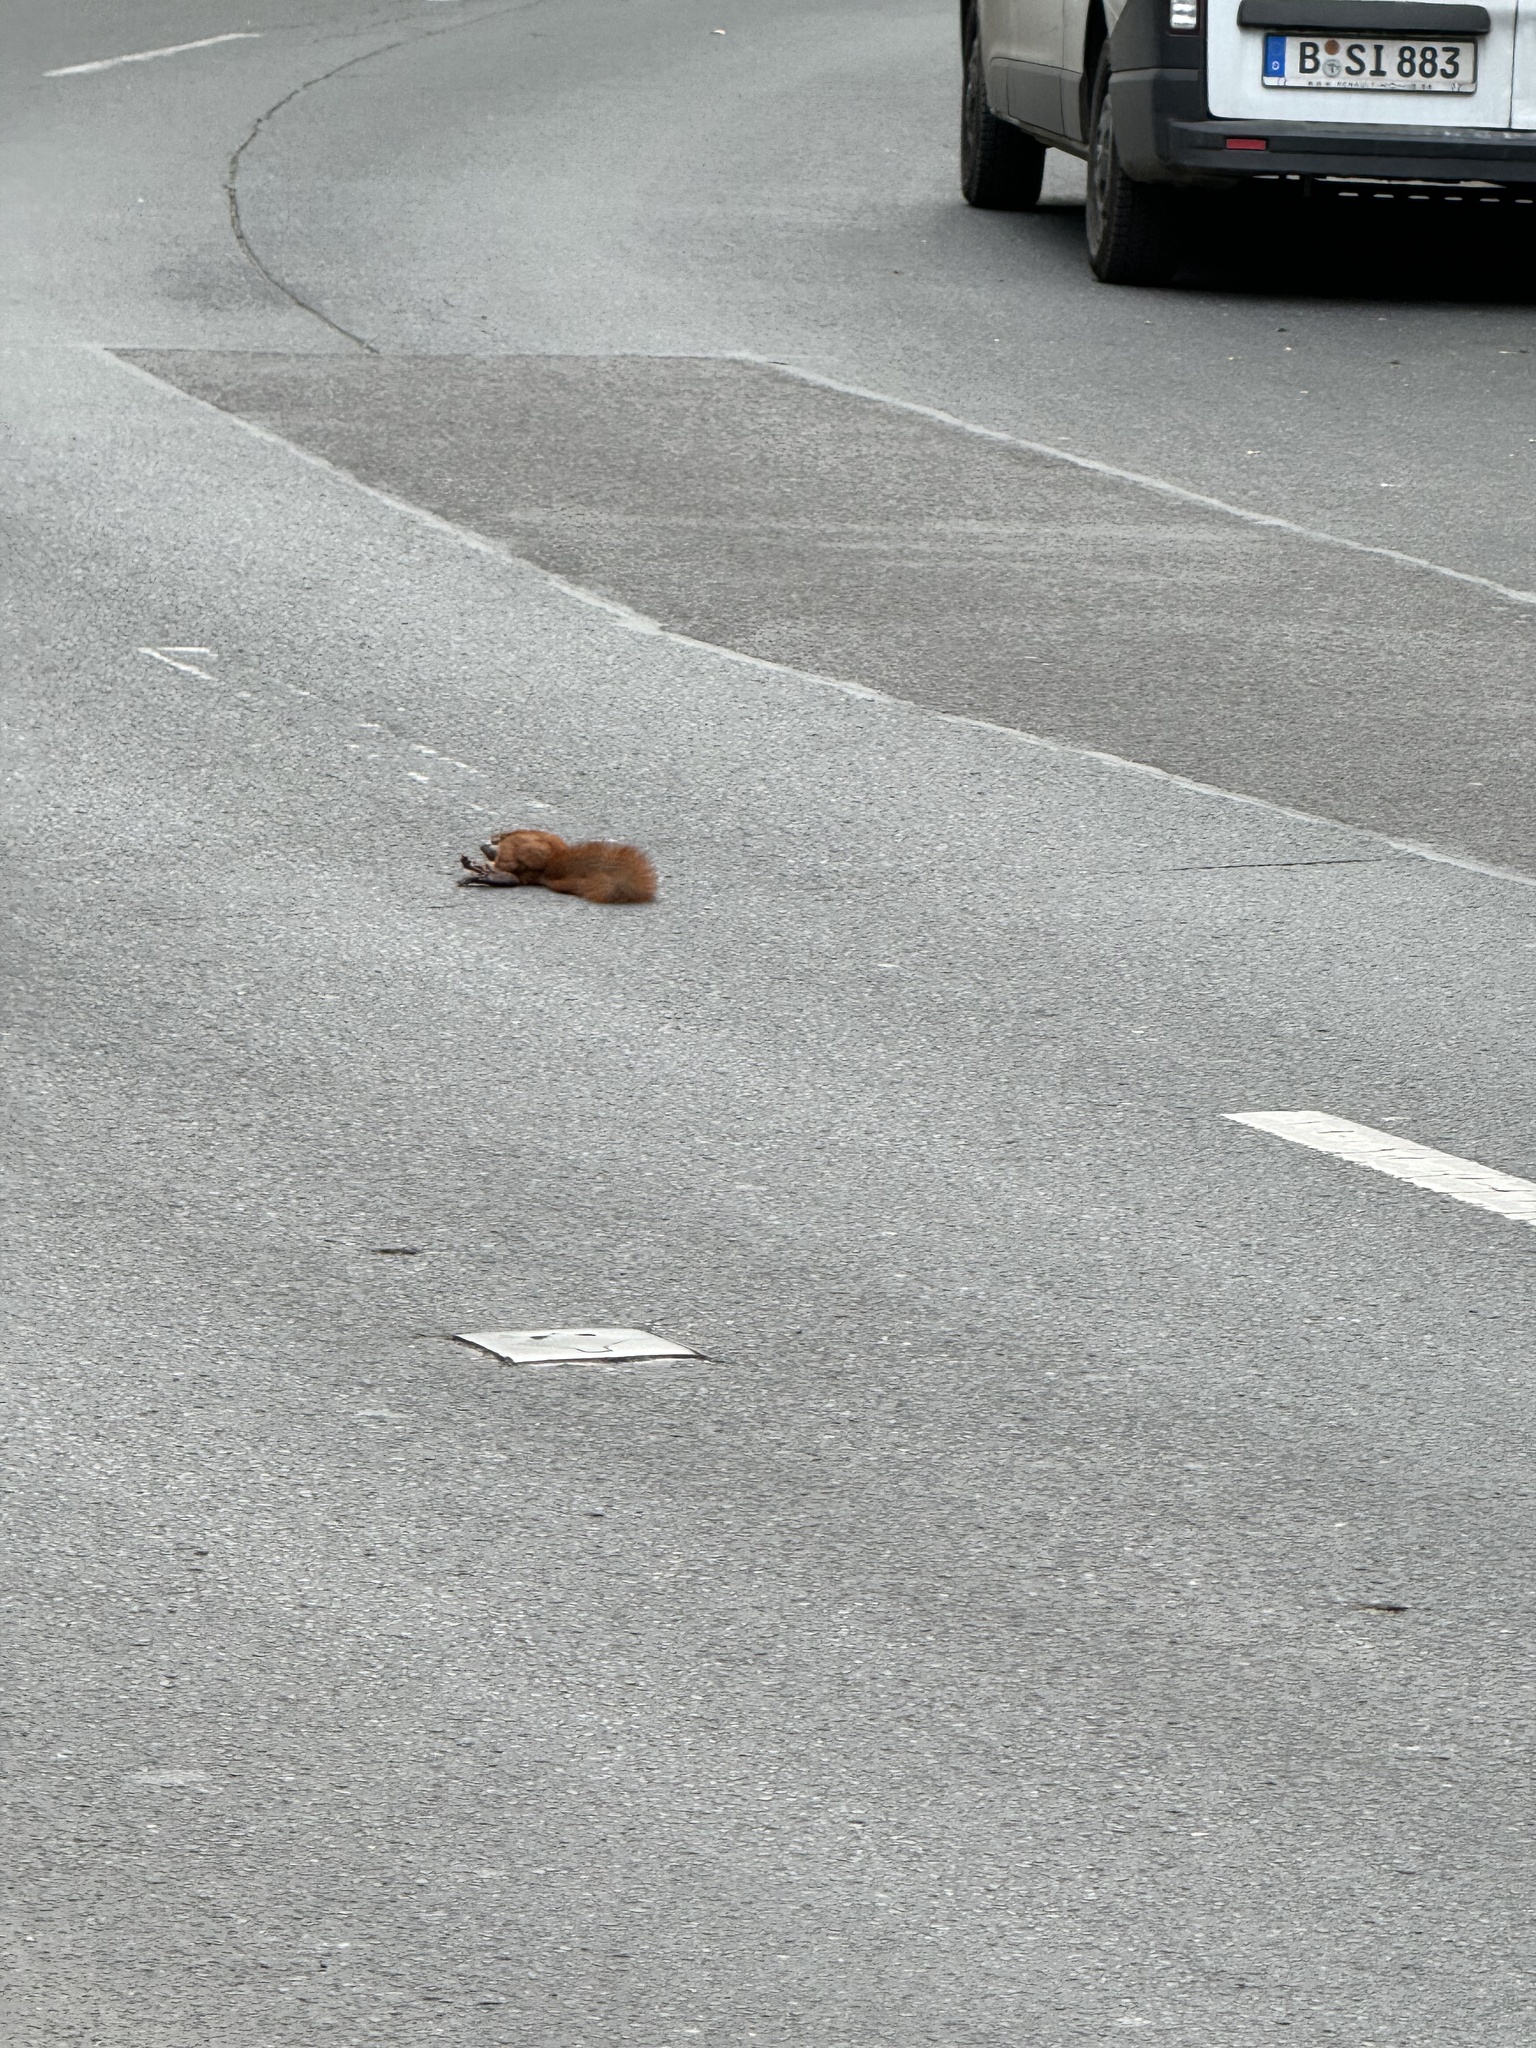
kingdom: Animalia
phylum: Chordata
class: Mammalia
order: Rodentia
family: Sciuridae
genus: Sciurus
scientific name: Sciurus vulgaris
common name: Eurasian red squirrel
